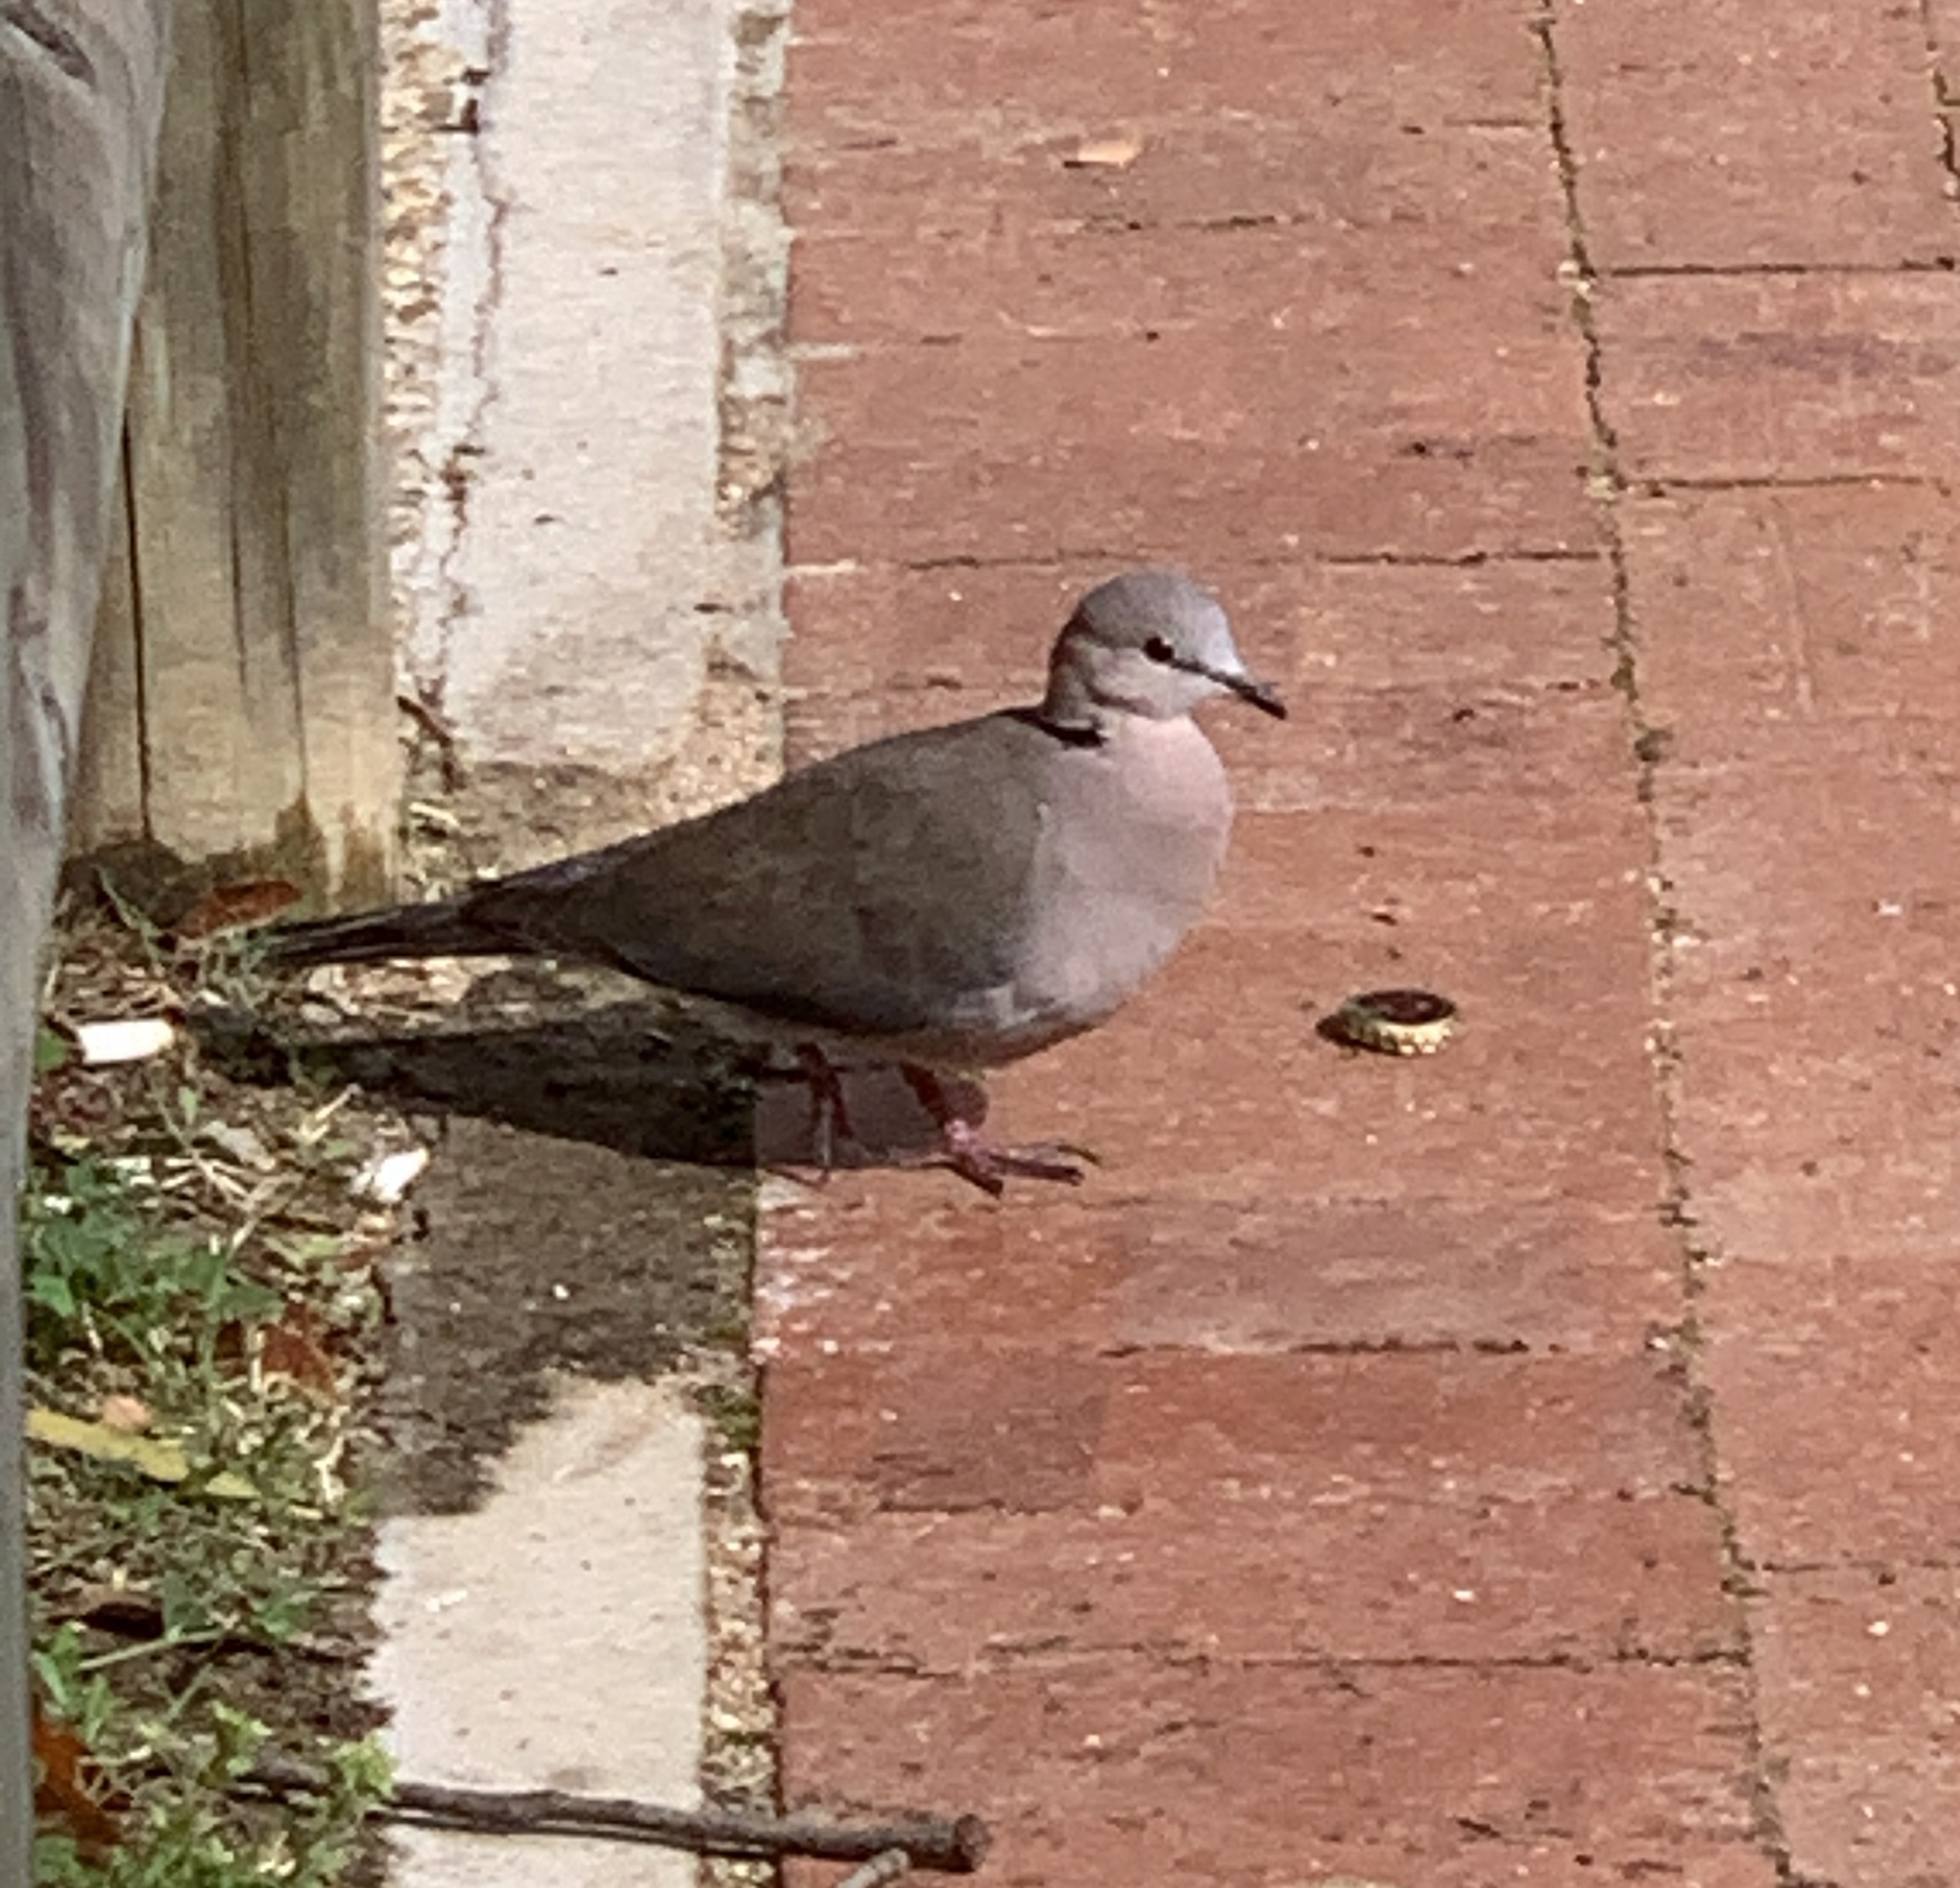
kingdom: Animalia
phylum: Chordata
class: Aves
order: Columbiformes
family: Columbidae
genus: Streptopelia
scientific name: Streptopelia capicola
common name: Ring-necked dove
